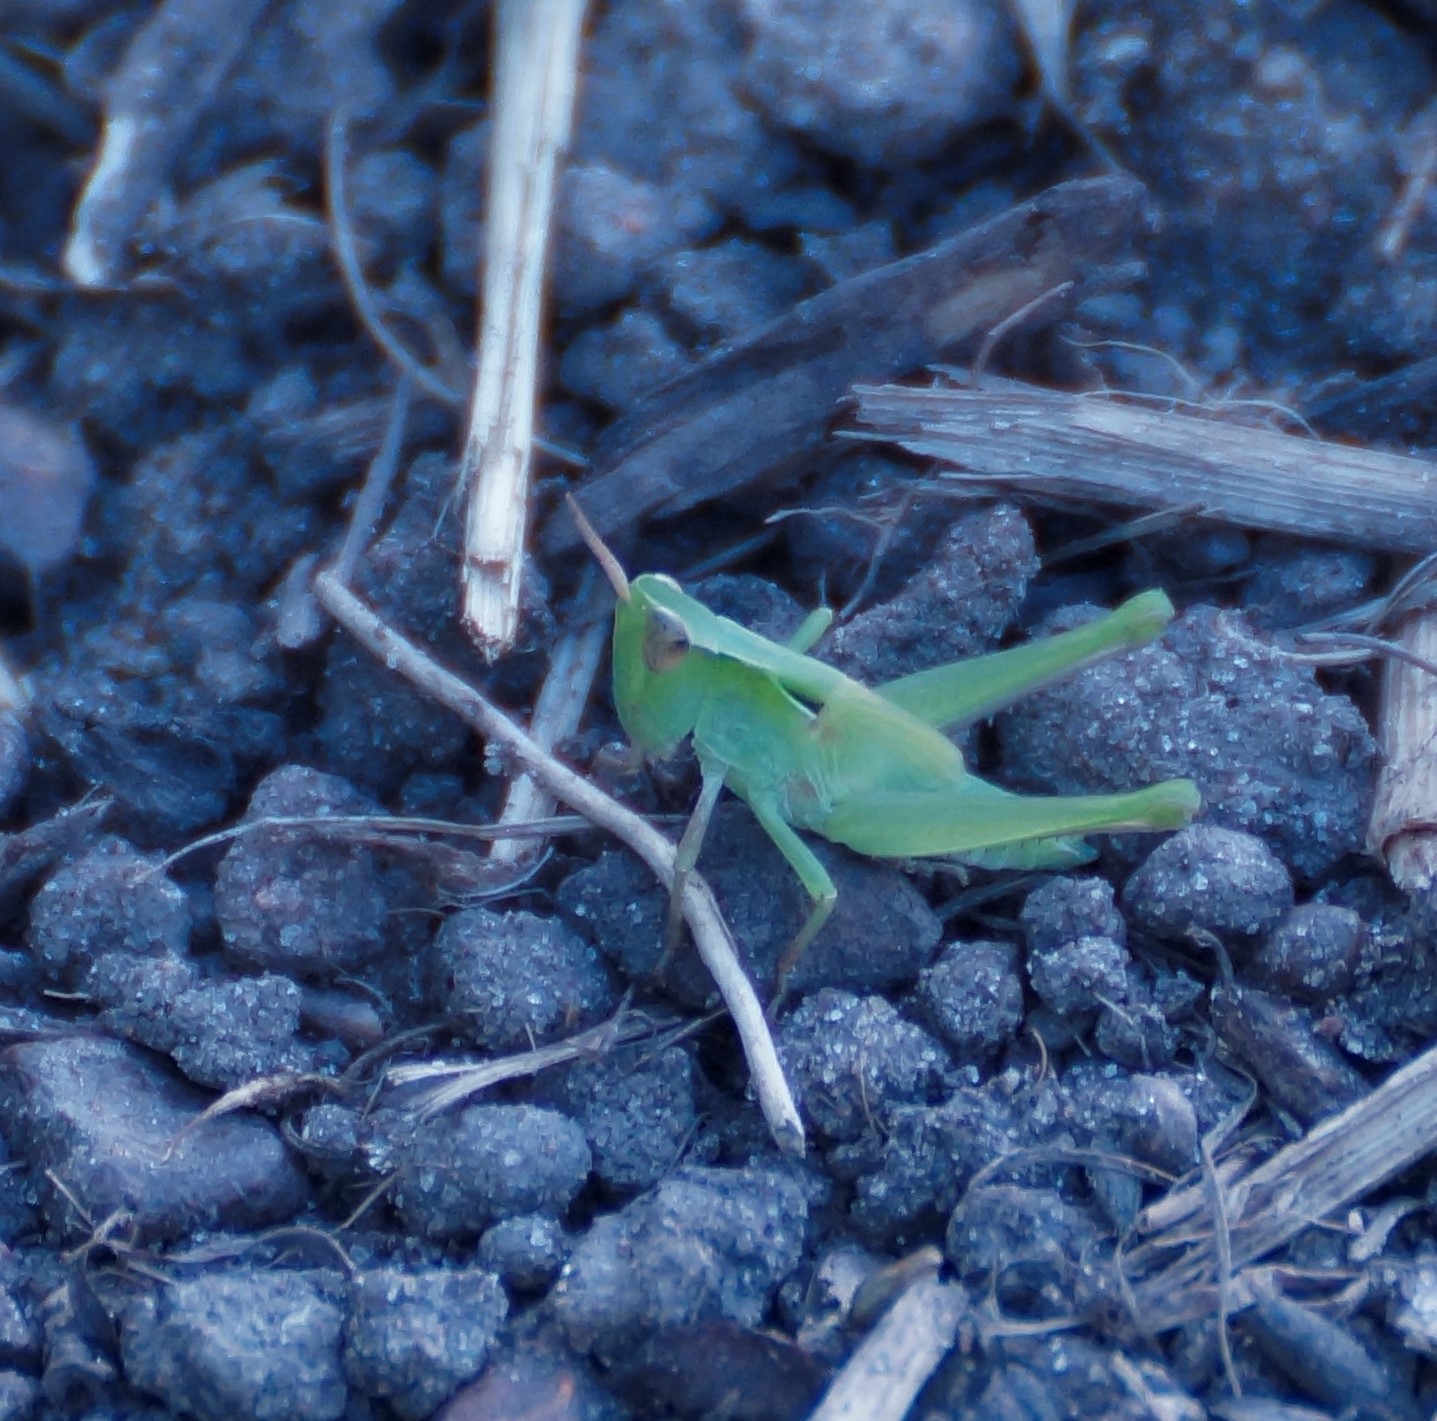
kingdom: Animalia
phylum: Arthropoda
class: Insecta
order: Orthoptera
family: Acrididae
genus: Aiolopus
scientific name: Aiolopus thalassinus
